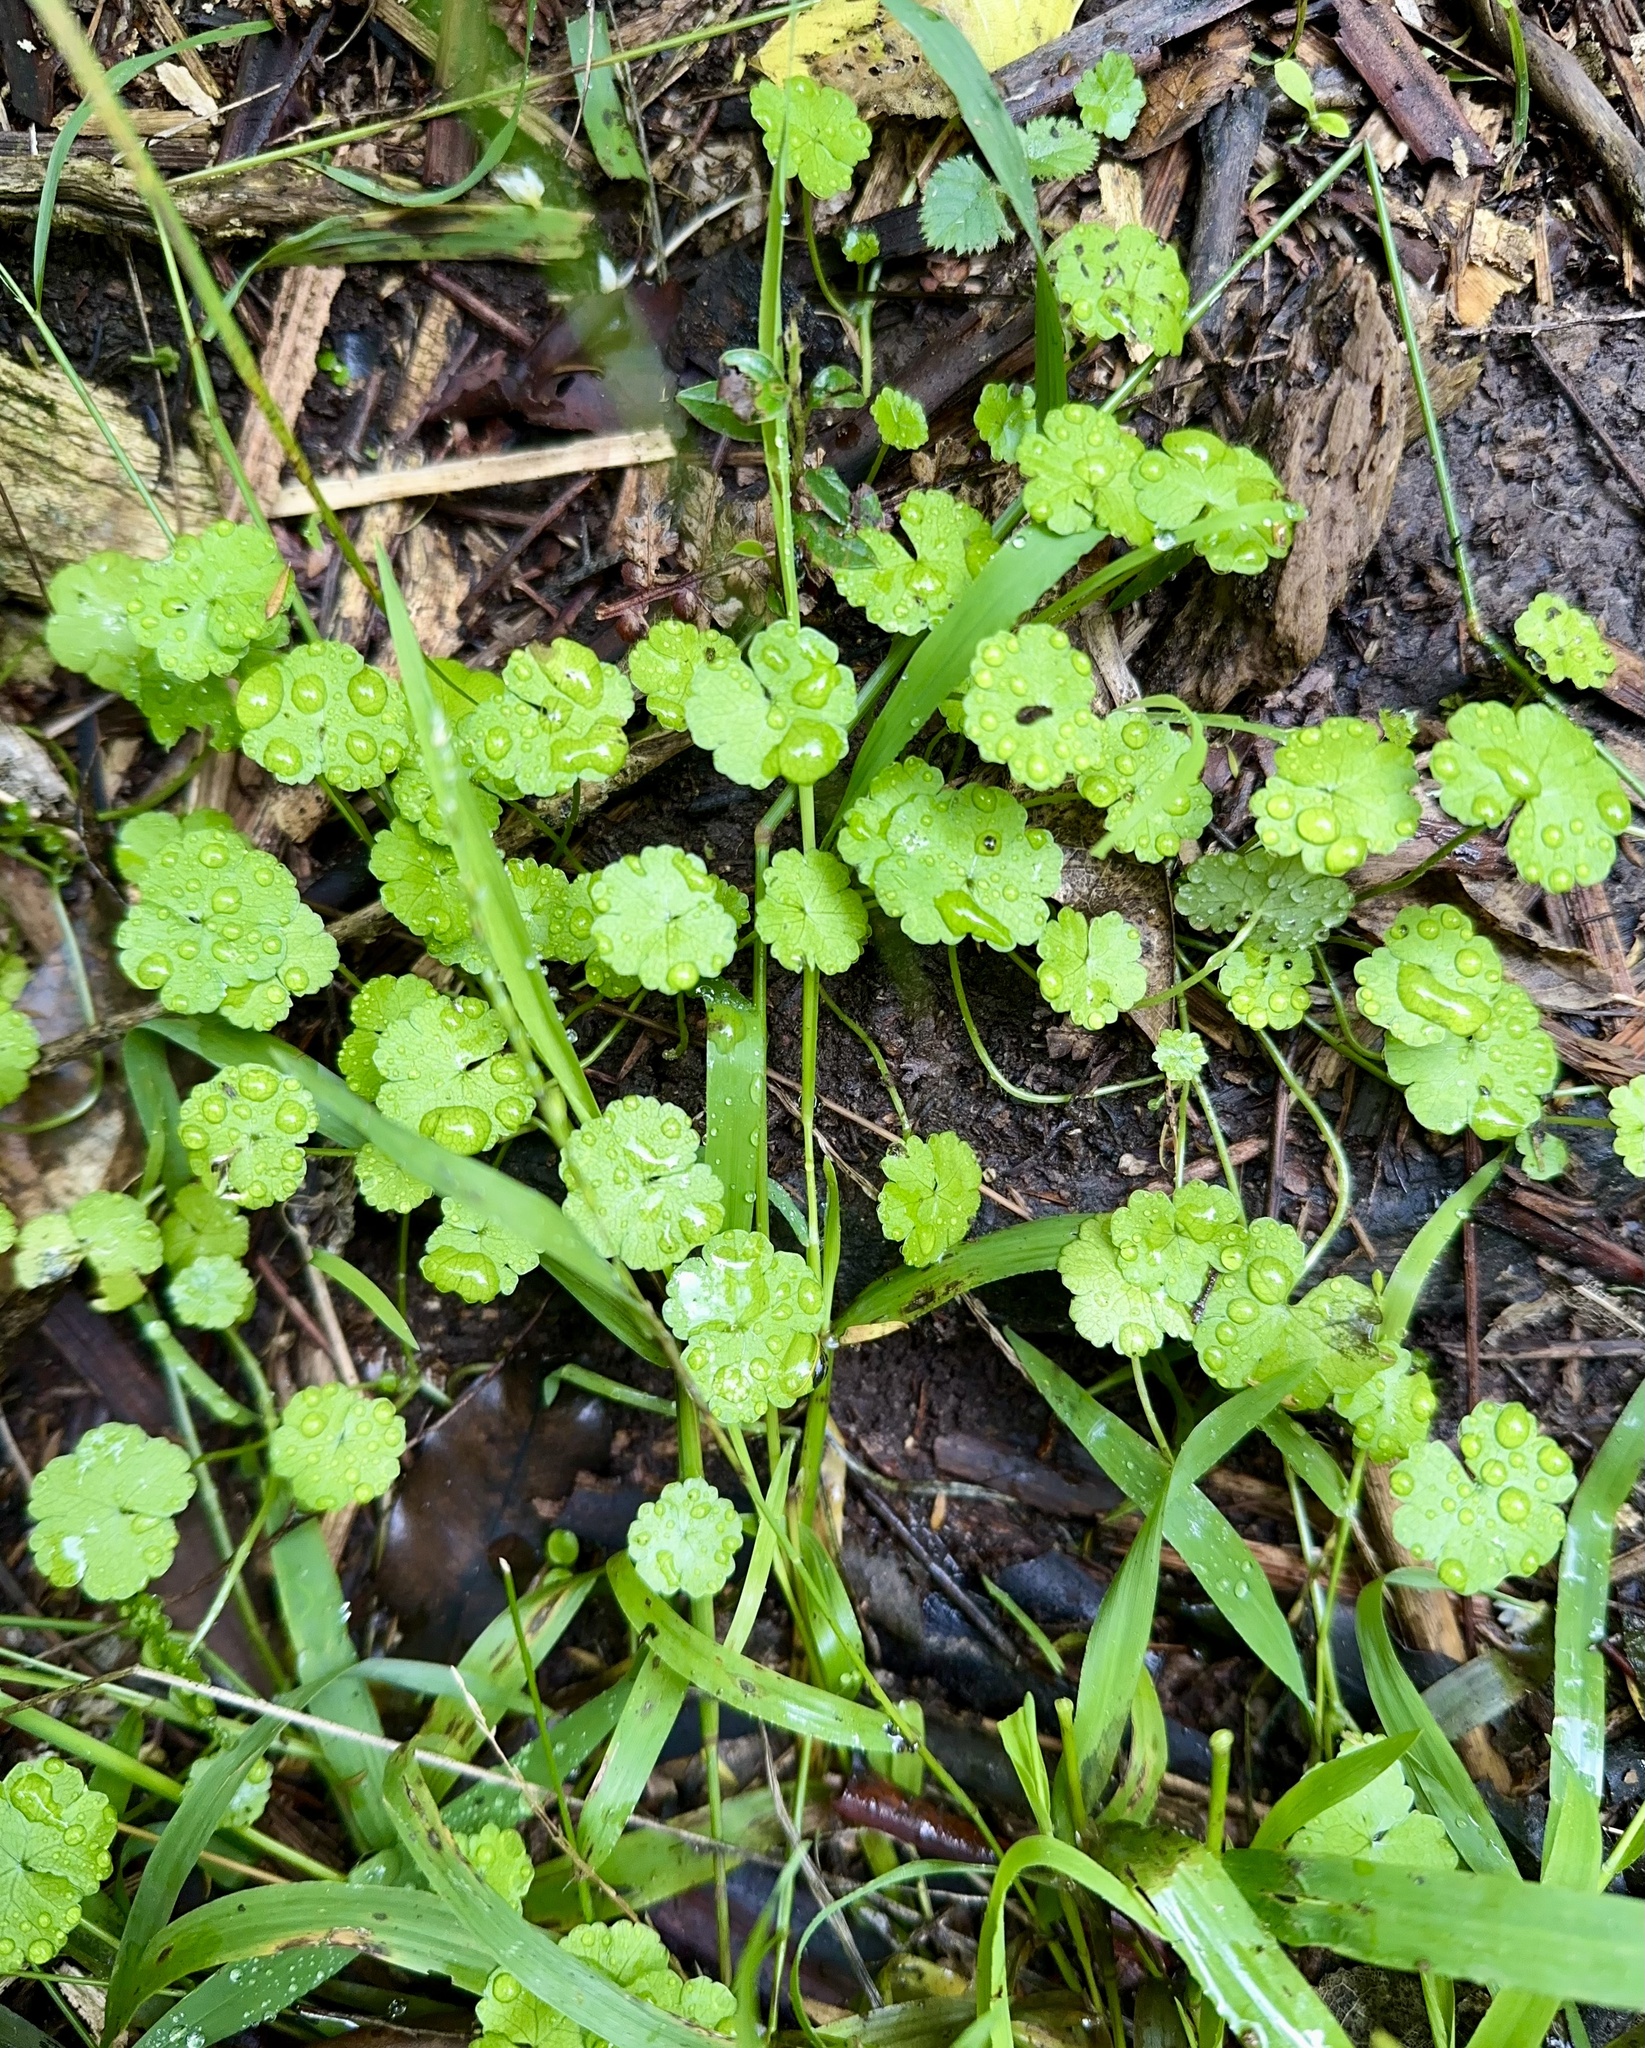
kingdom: Plantae
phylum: Tracheophyta
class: Magnoliopsida
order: Apiales
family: Araliaceae
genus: Hydrocotyle
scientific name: Hydrocotyle heteromeria
